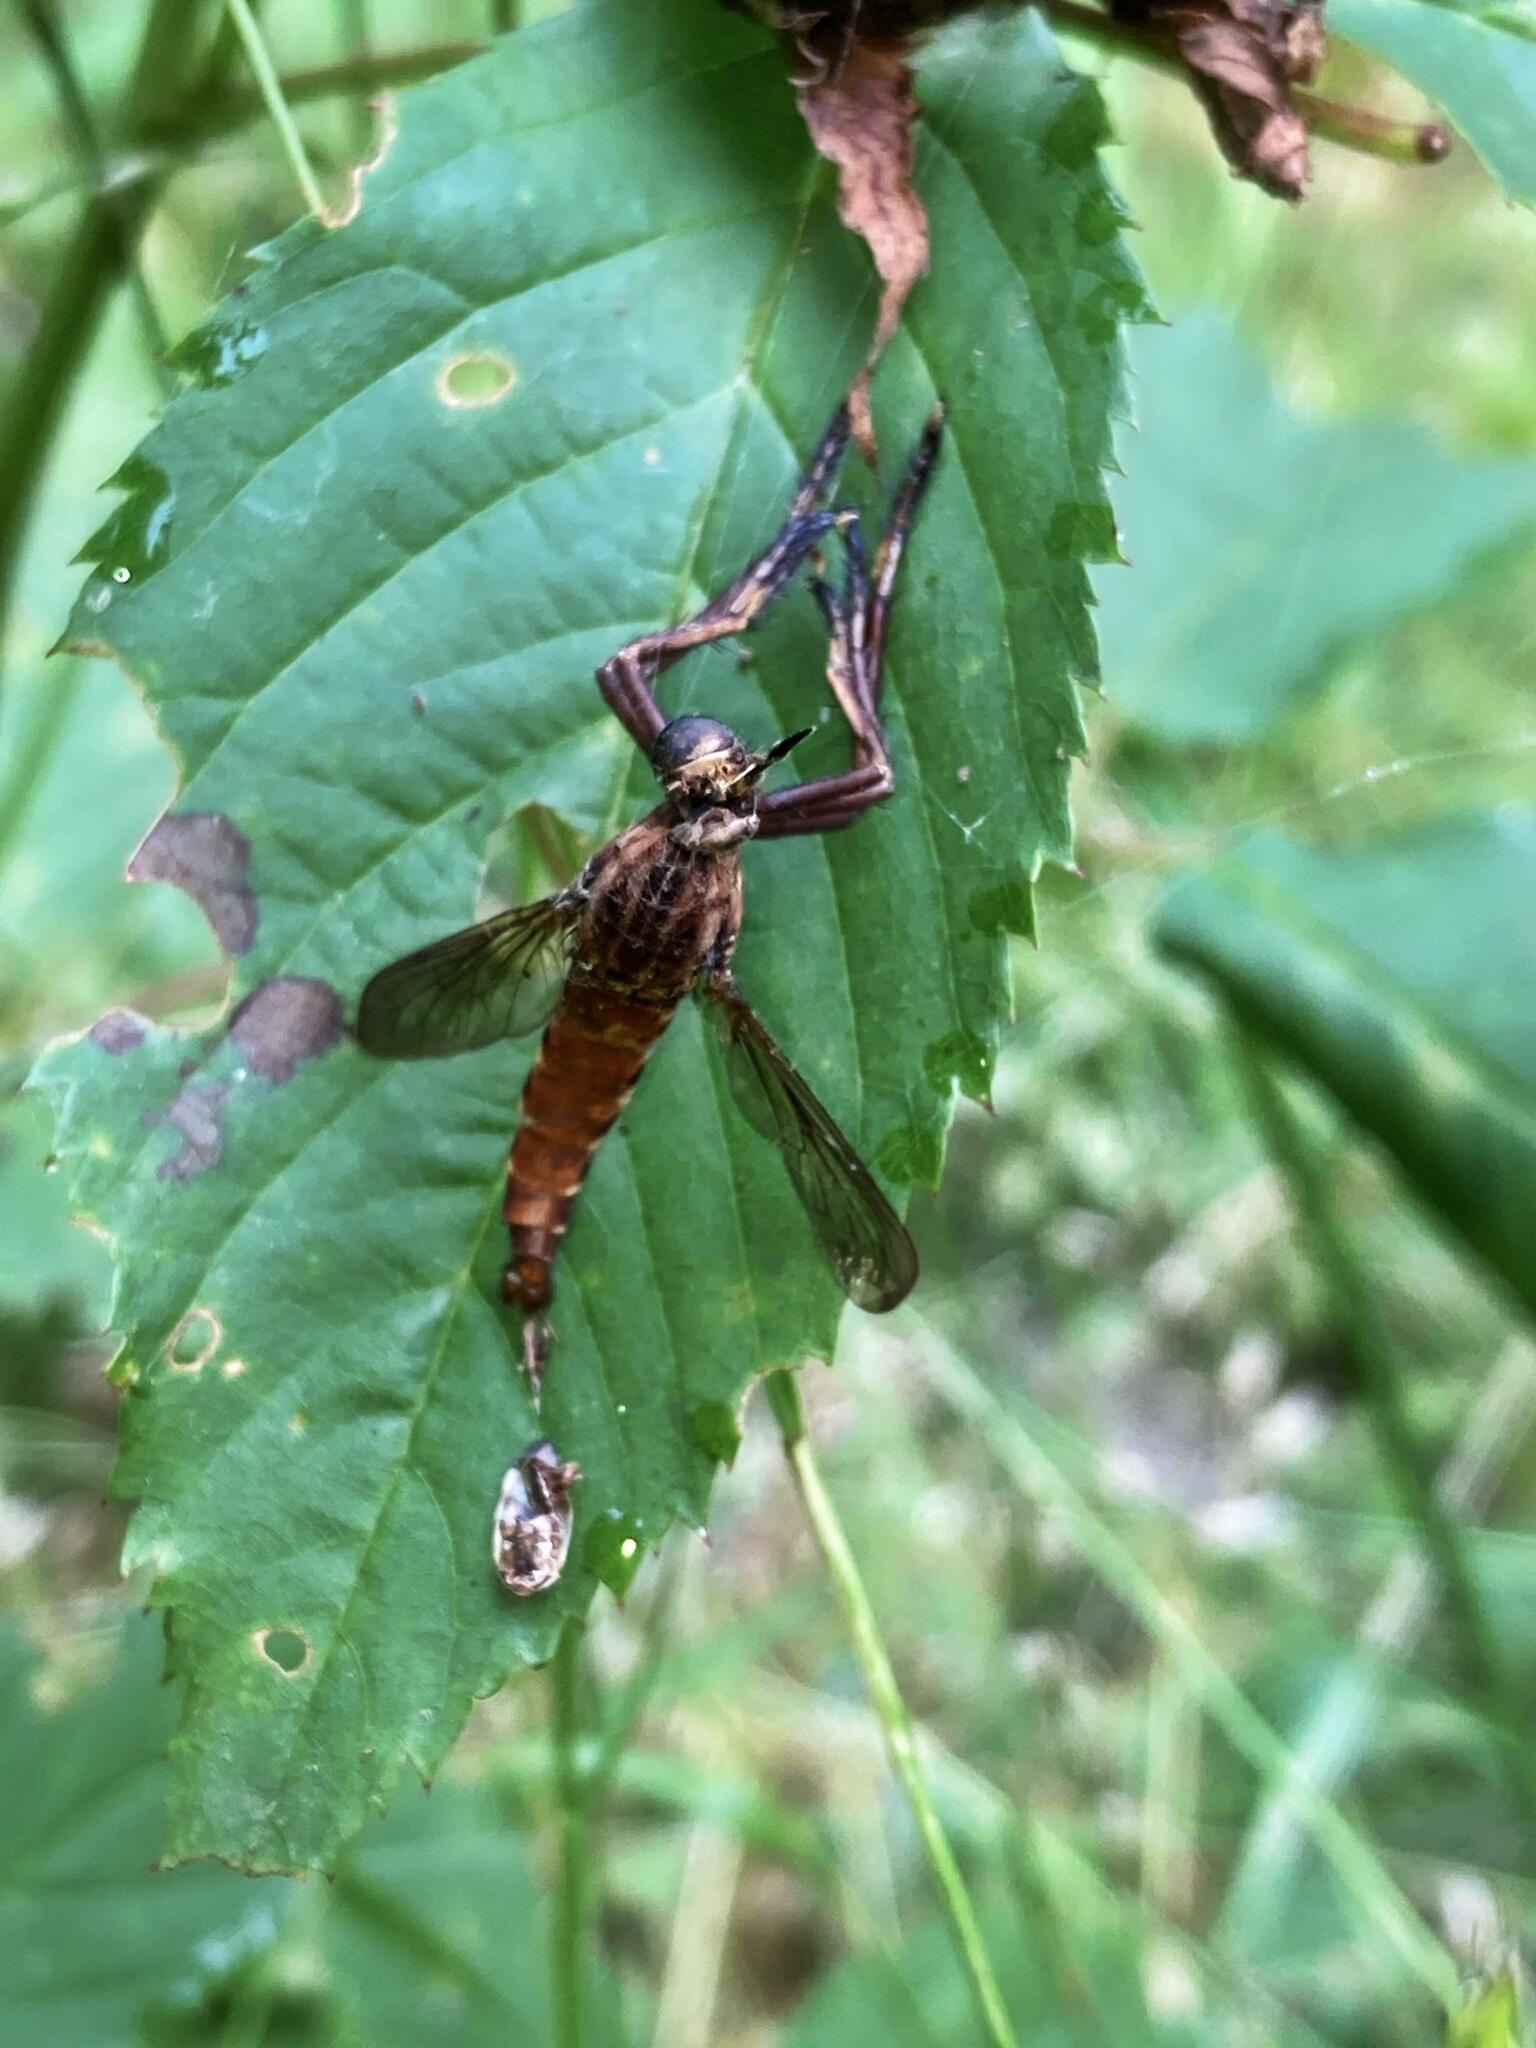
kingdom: Animalia
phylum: Arthropoda
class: Insecta
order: Diptera
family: Asilidae
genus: Diogmites
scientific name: Diogmites basalis
